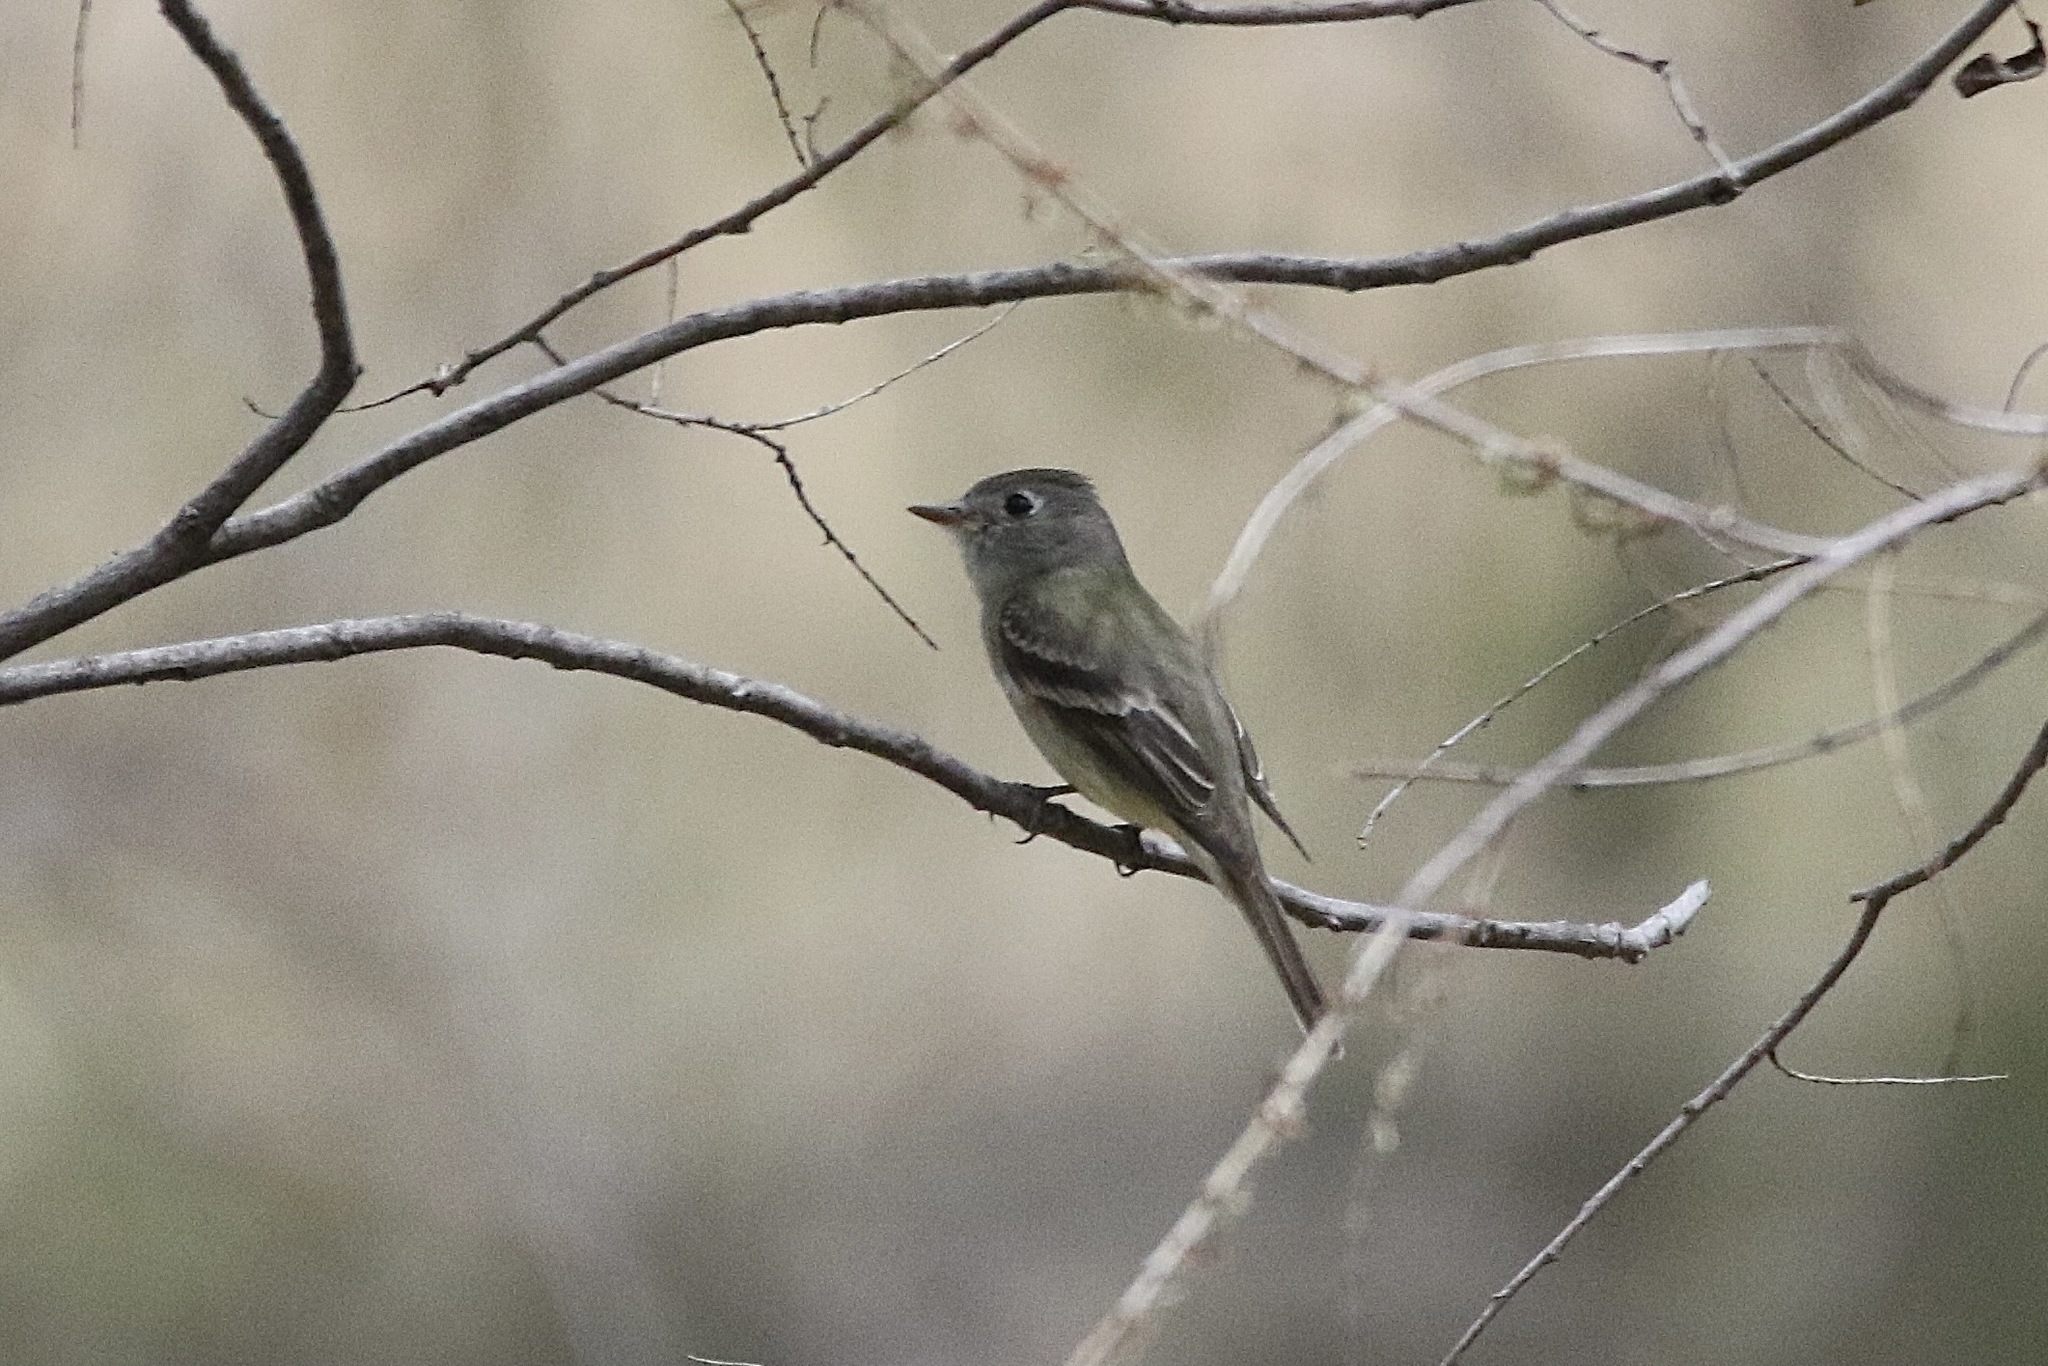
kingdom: Animalia
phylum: Chordata
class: Aves
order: Passeriformes
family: Tyrannidae
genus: Empidonax
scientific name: Empidonax hammondii
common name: Hammond's flycatcher
